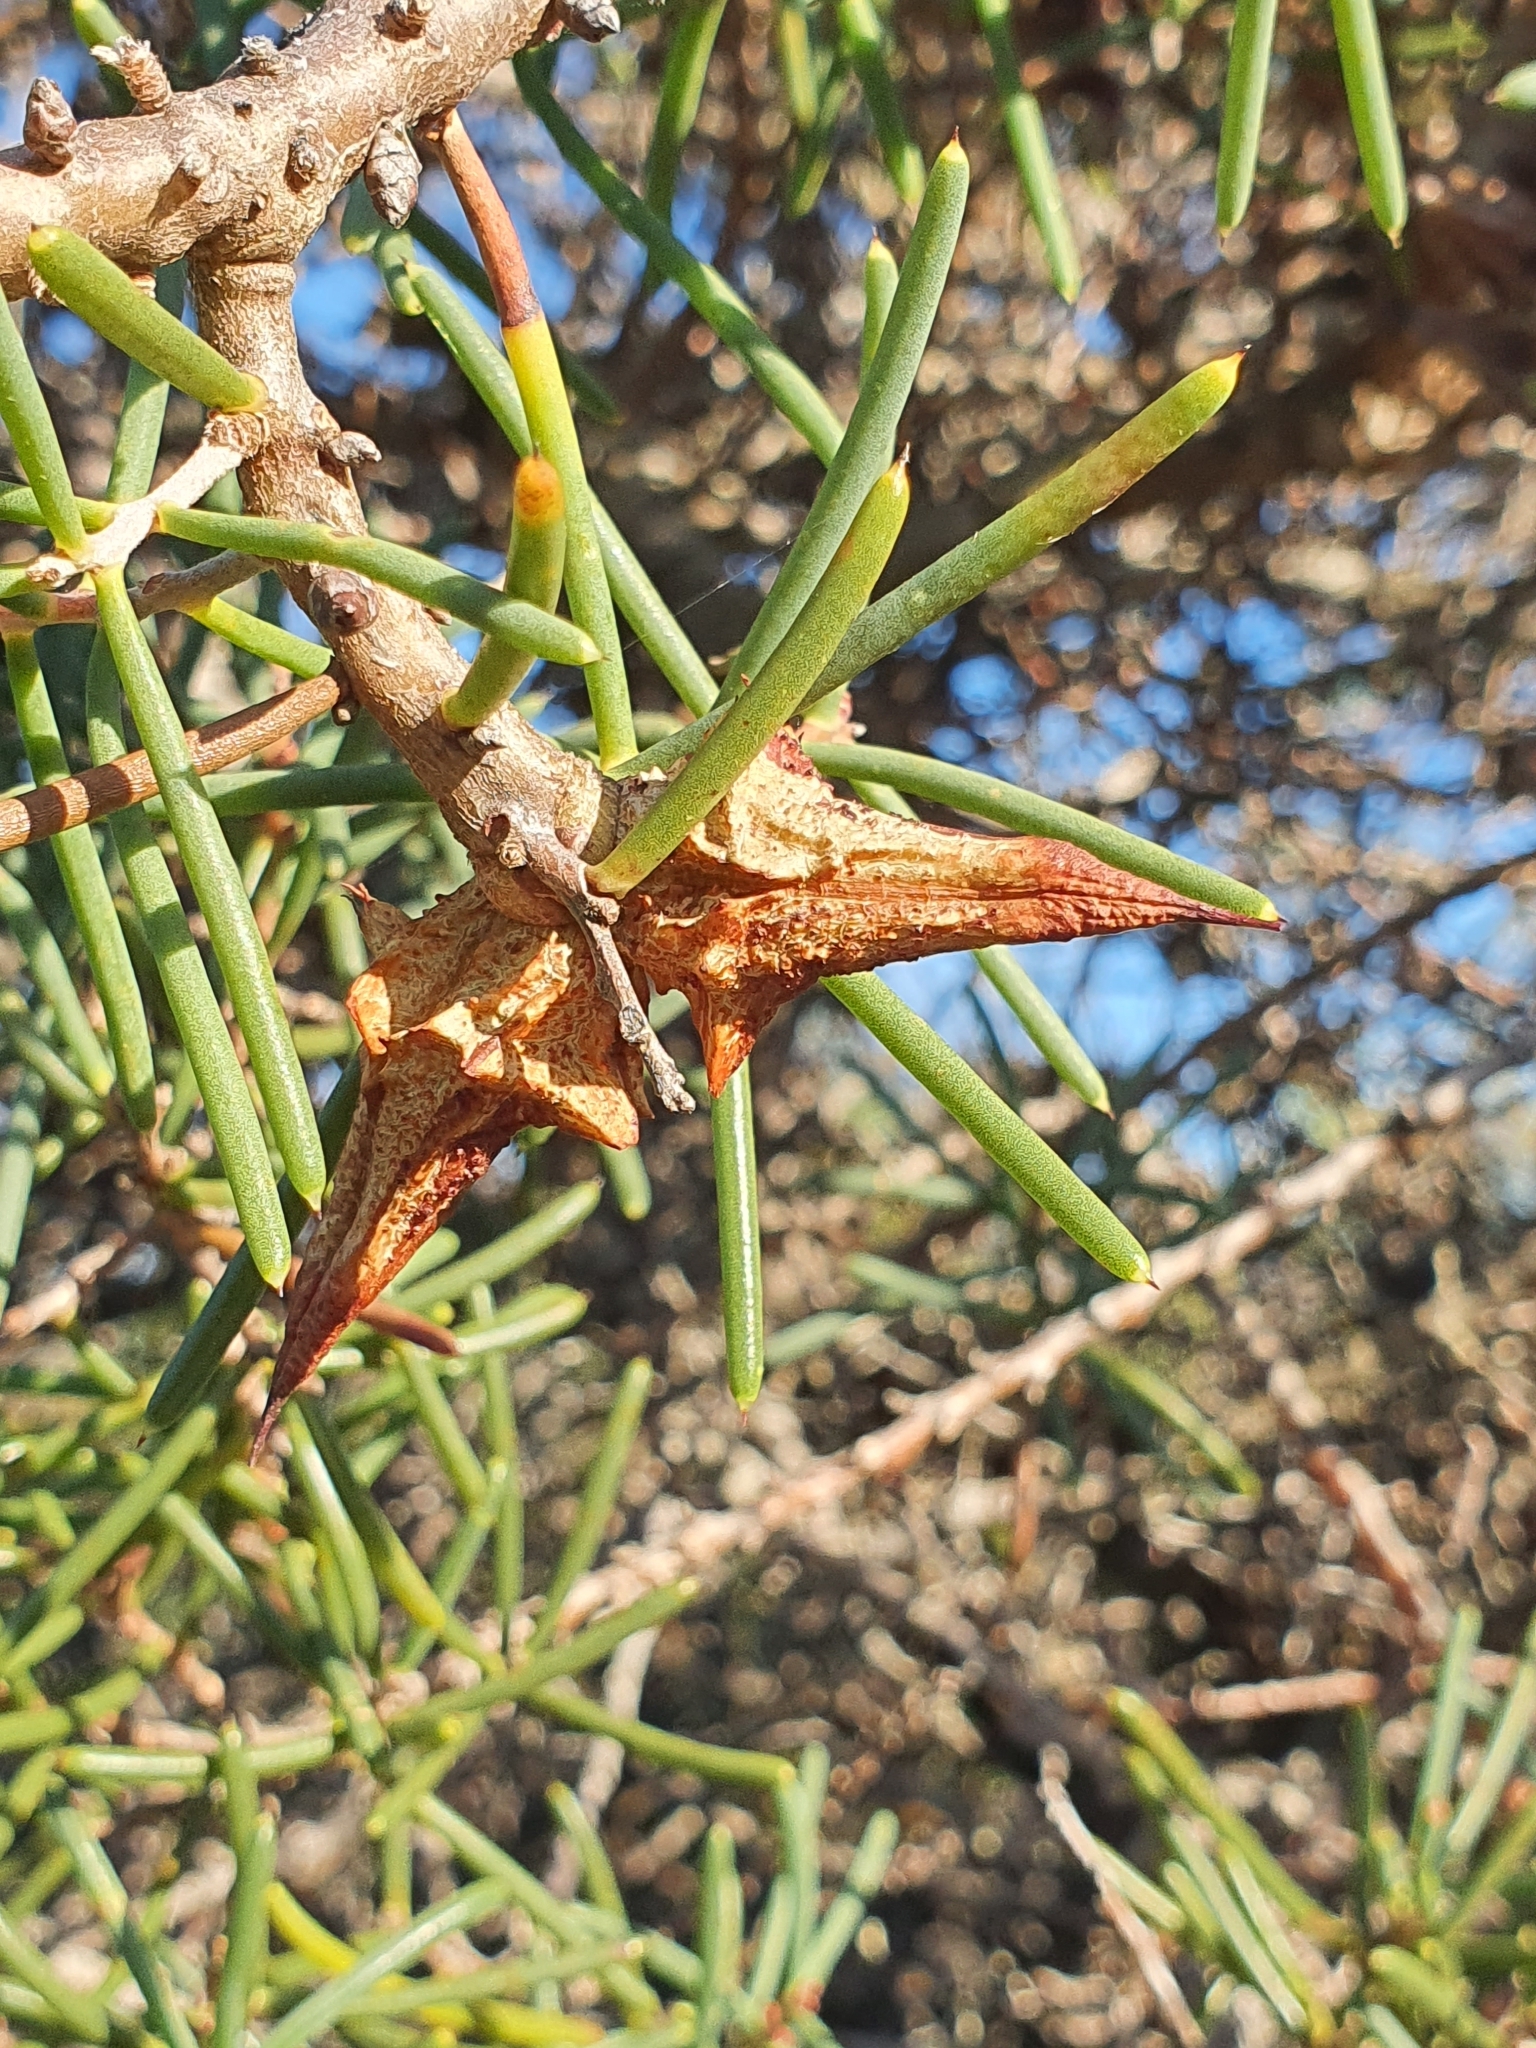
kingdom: Plantae
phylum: Tracheophyta
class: Magnoliopsida
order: Proteales
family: Proteaceae
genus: Hakea
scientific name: Hakea teretifolia
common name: Dagger hakea
